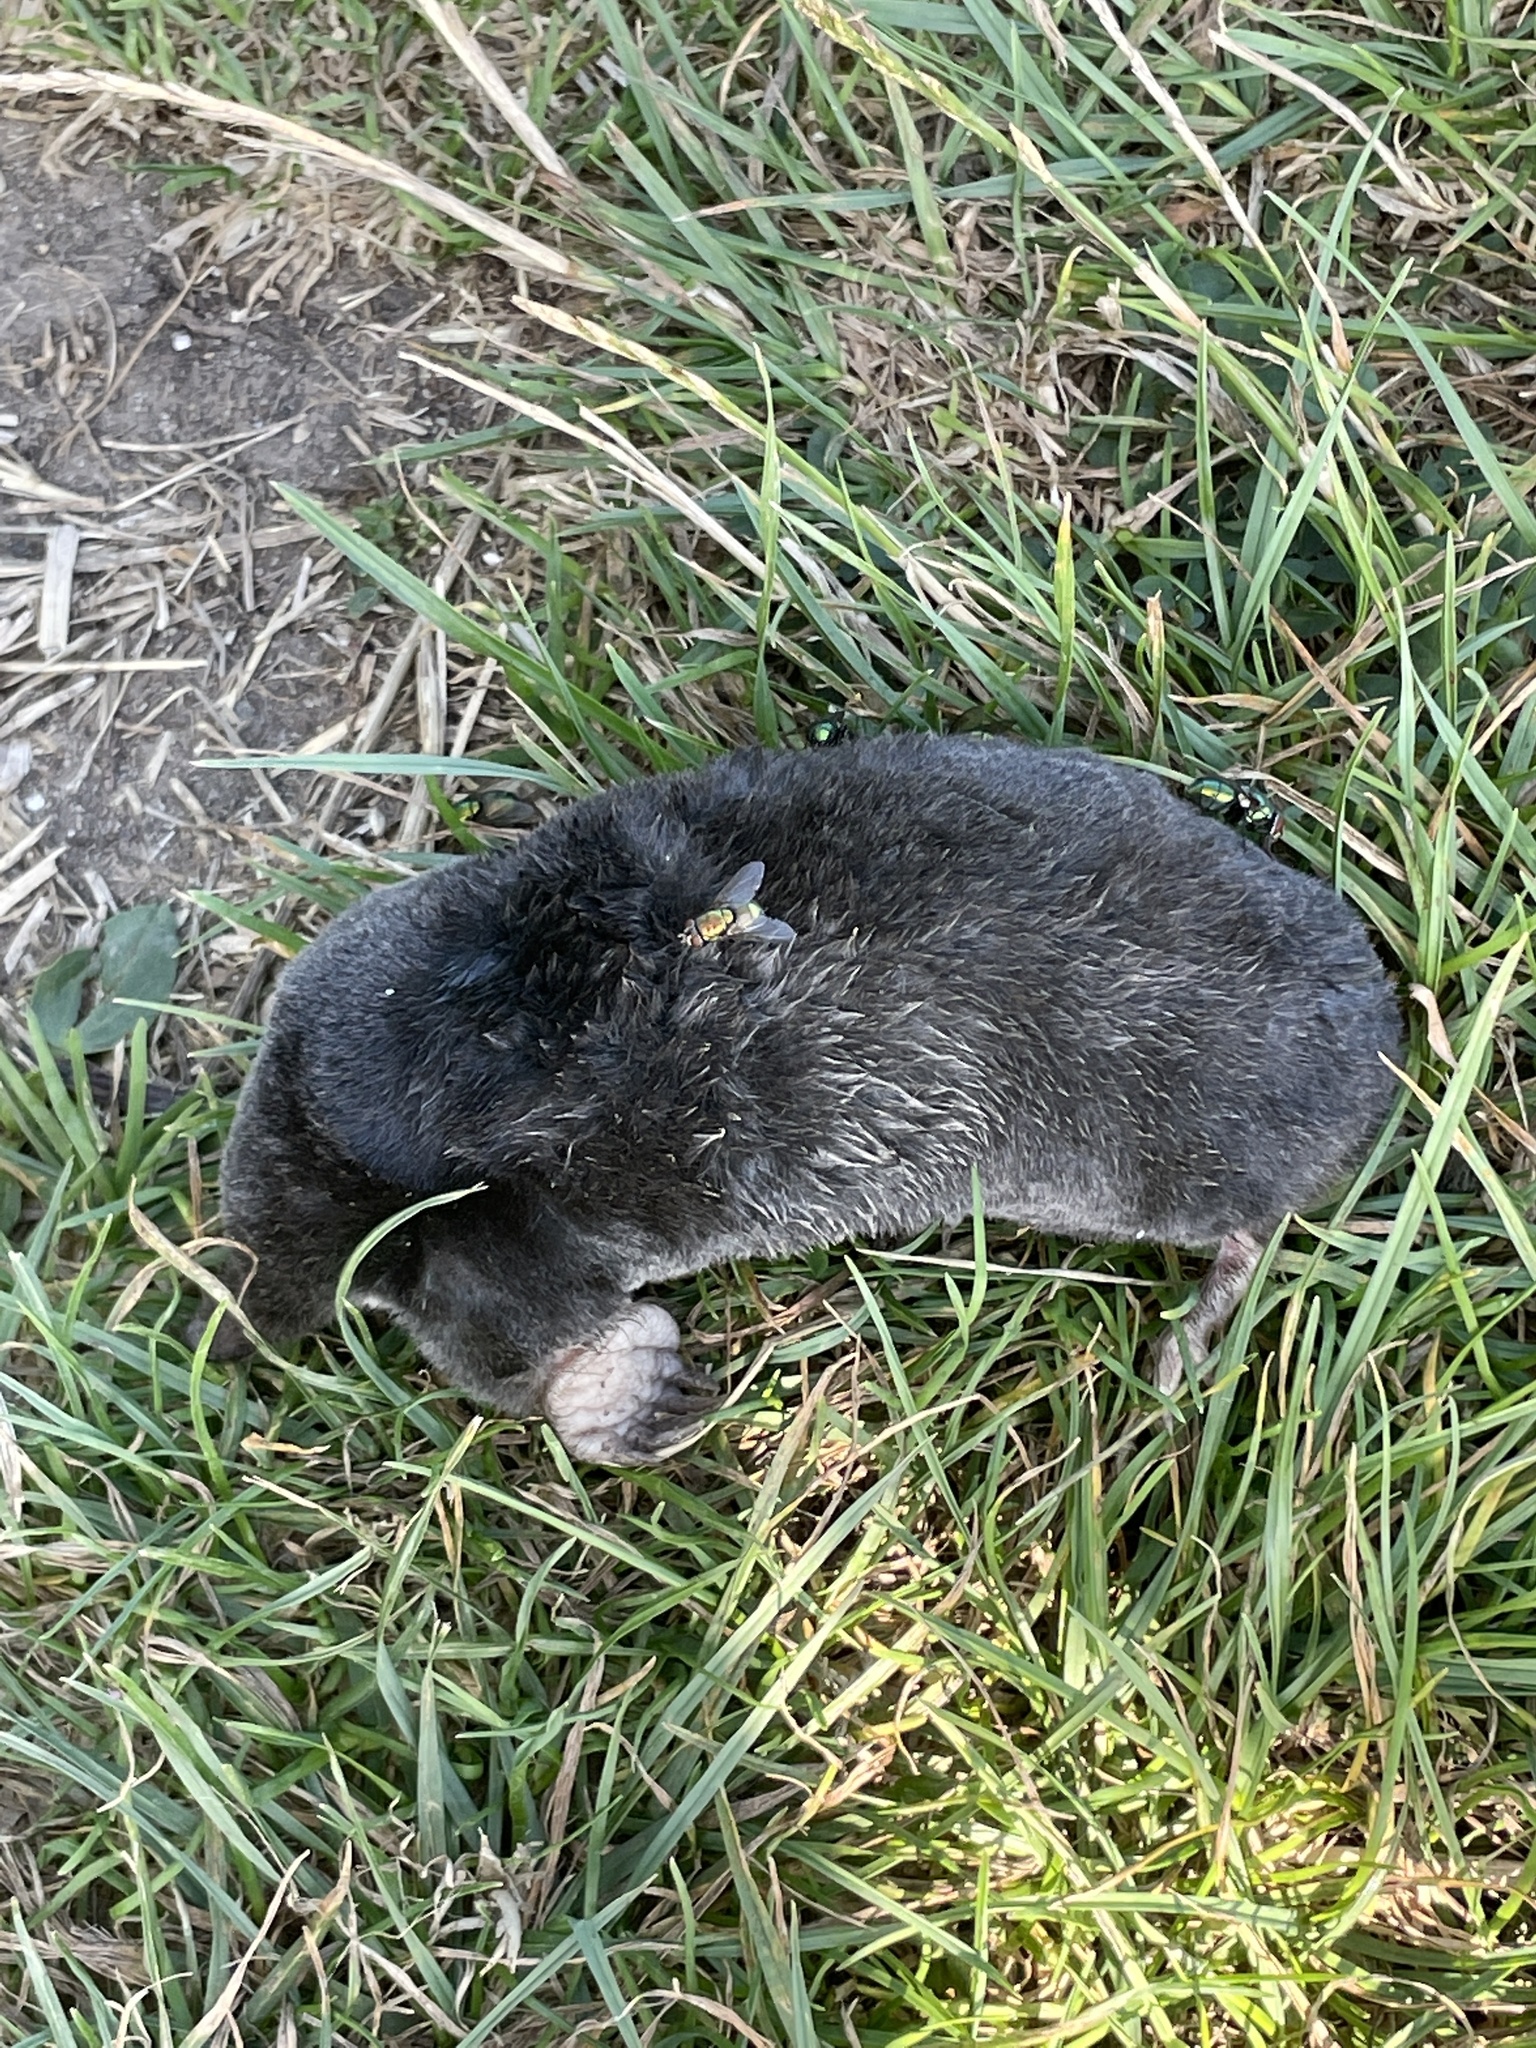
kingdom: Animalia
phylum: Chordata
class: Mammalia
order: Soricomorpha
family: Talpidae
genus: Talpa
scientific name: Talpa europaea
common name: European mole
